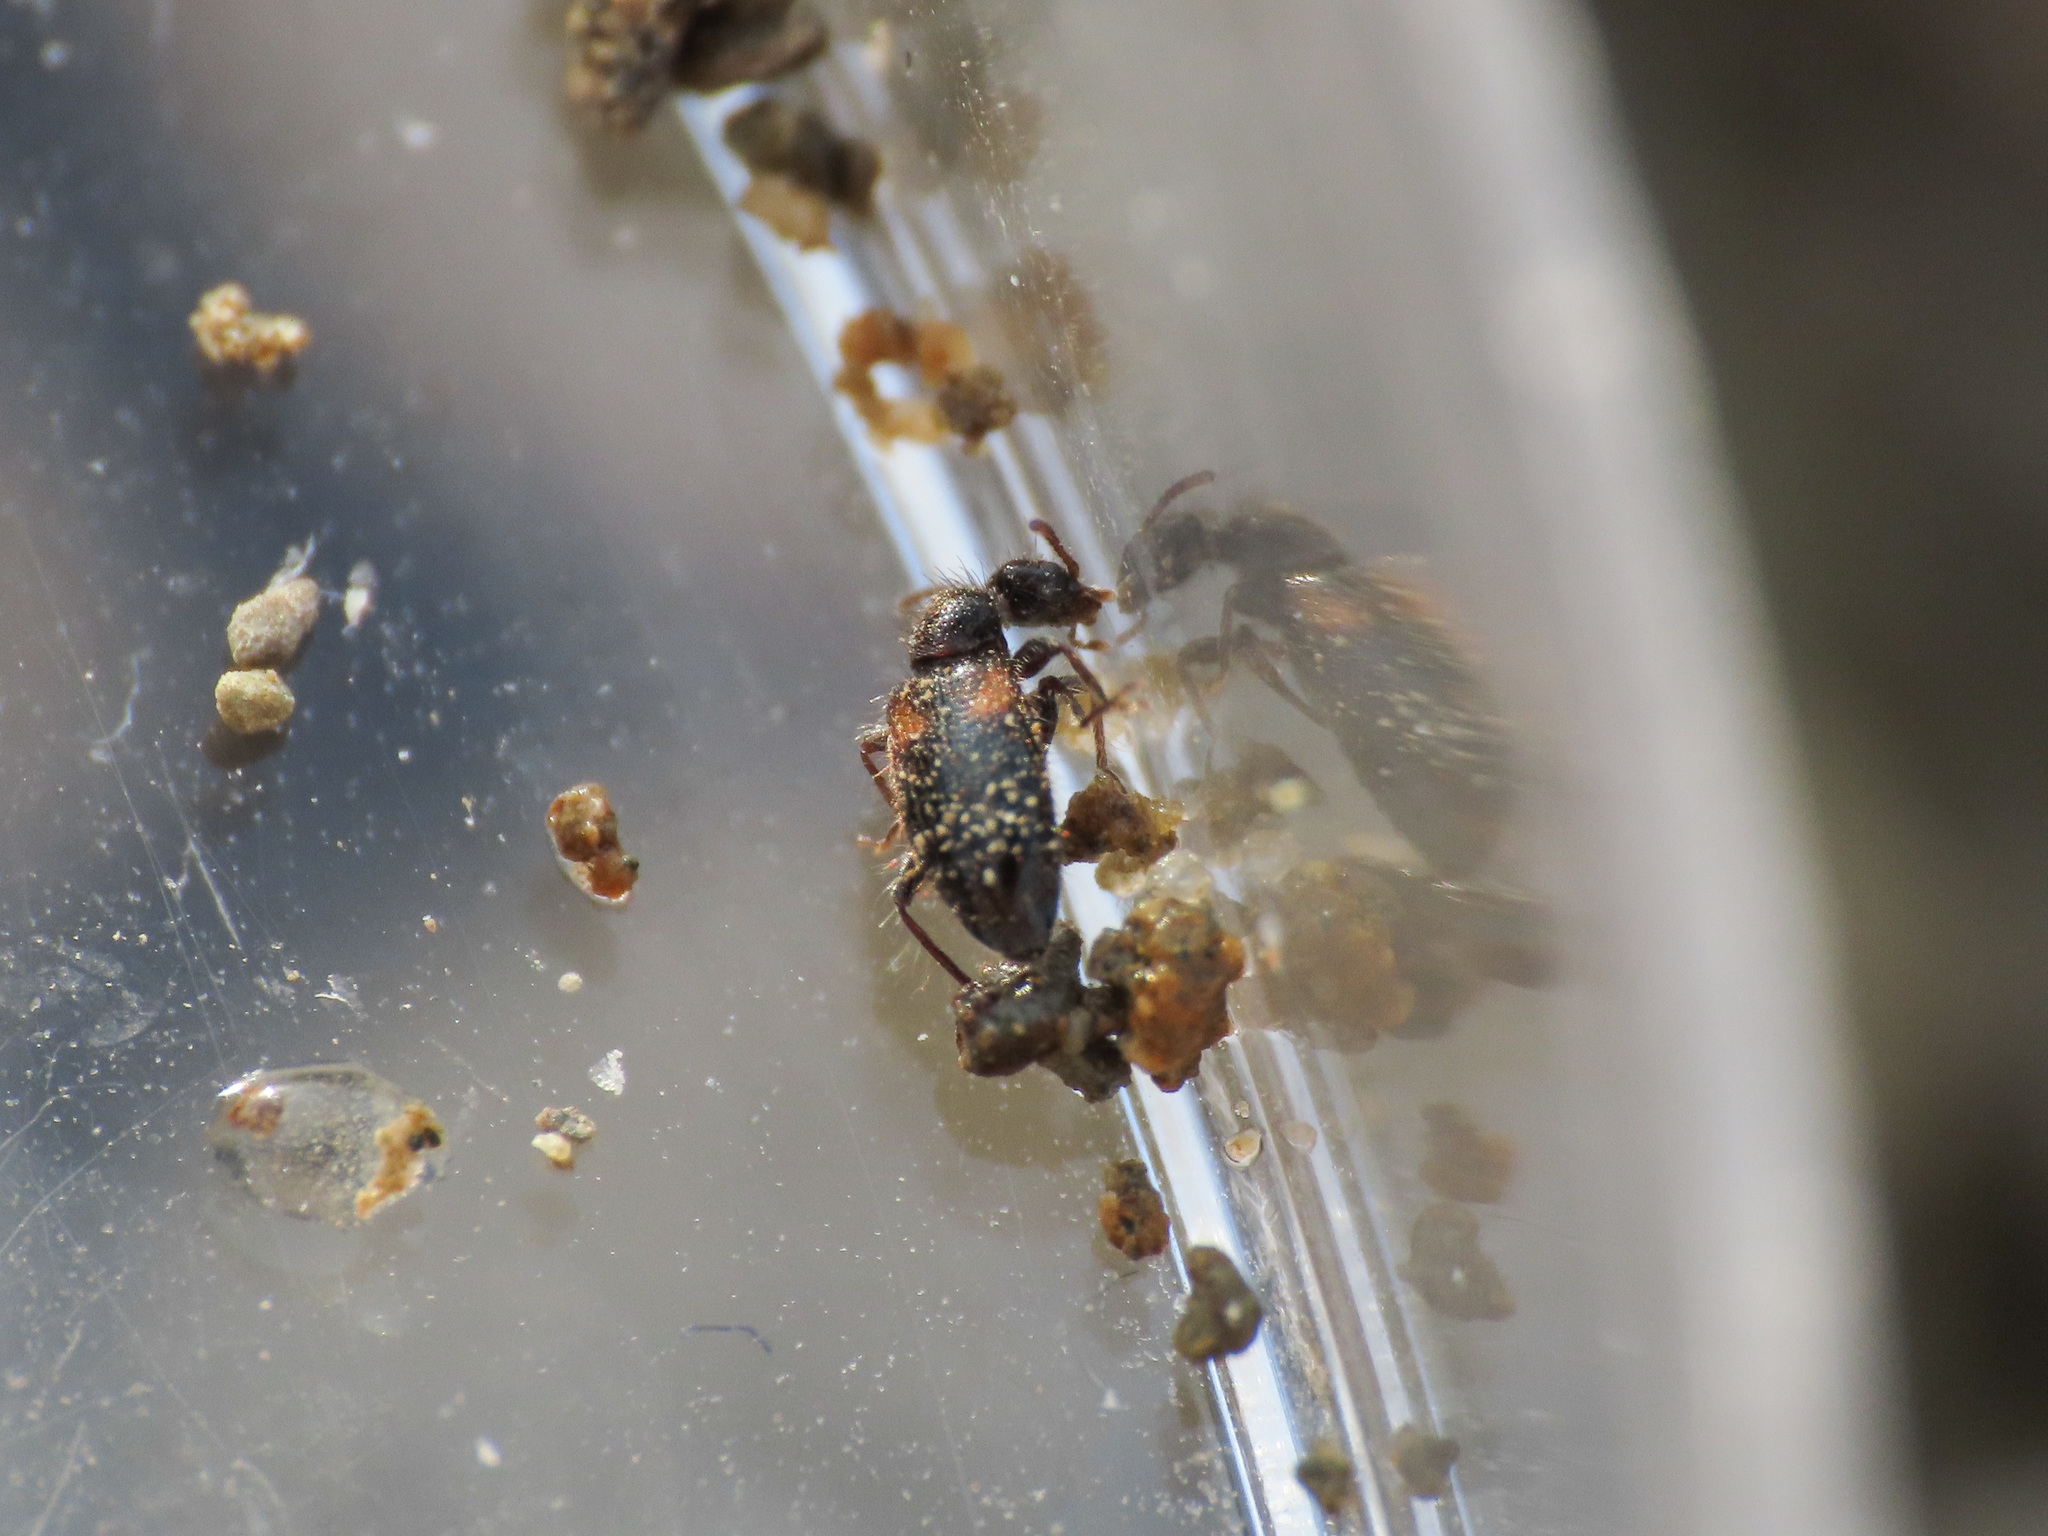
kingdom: Animalia
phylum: Arthropoda
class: Insecta
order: Coleoptera
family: Anthicidae
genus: Hirticollis
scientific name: Hirticollis hispidus
